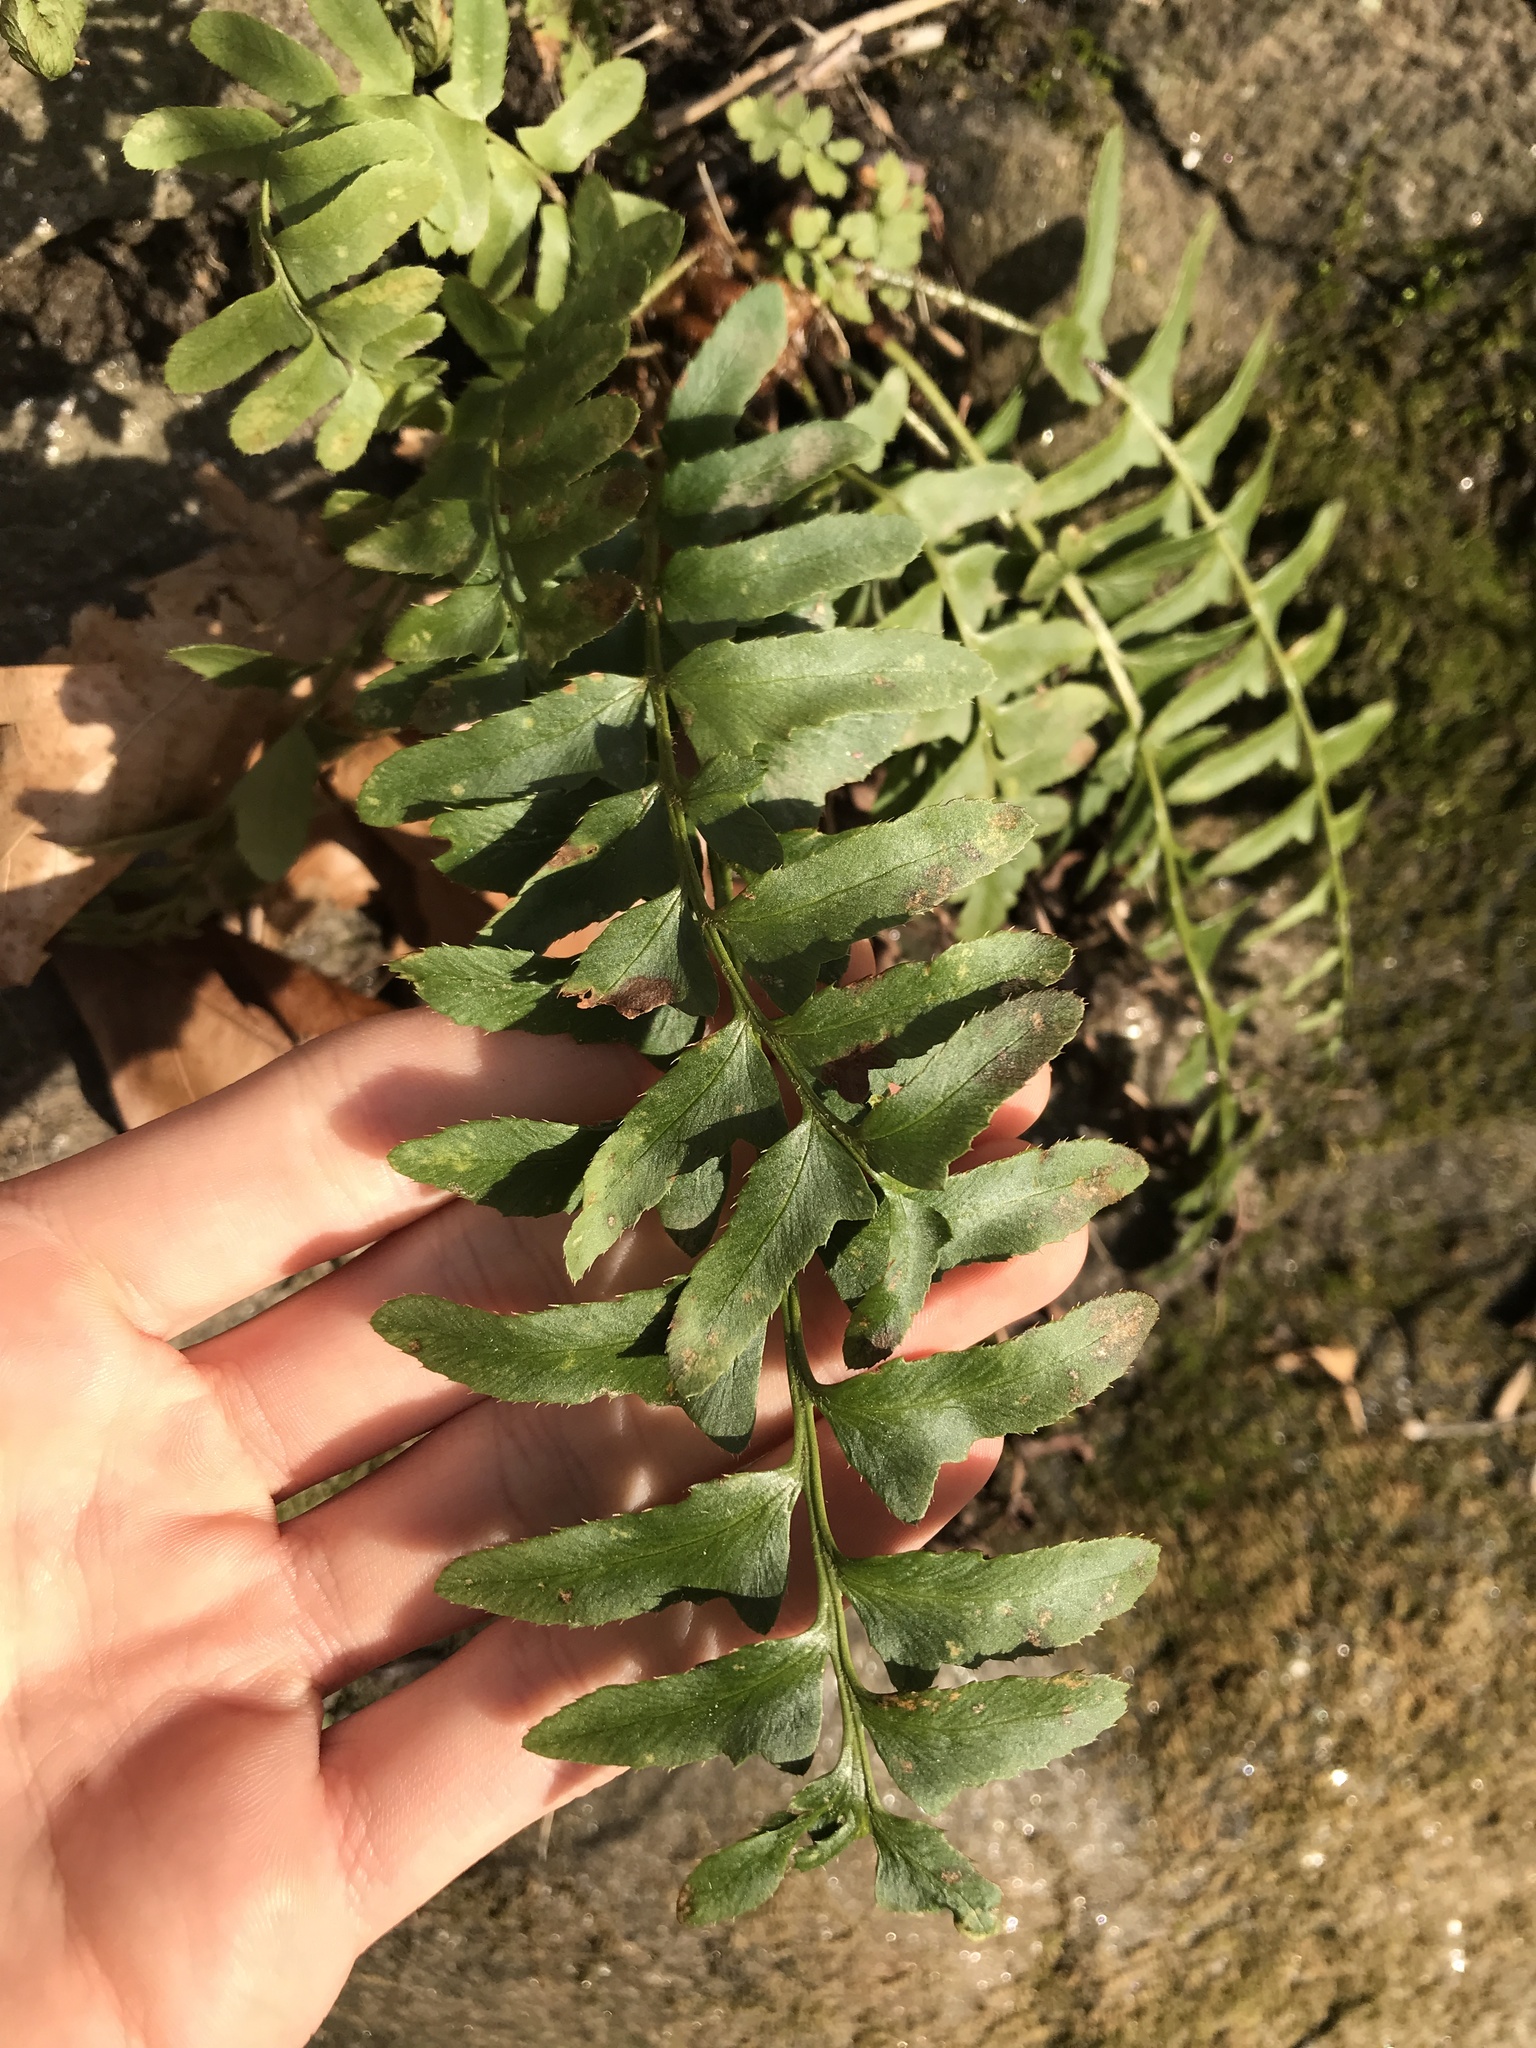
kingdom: Plantae
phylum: Tracheophyta
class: Polypodiopsida
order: Polypodiales
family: Dryopteridaceae
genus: Polystichum
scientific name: Polystichum acrostichoides
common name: Christmas fern
